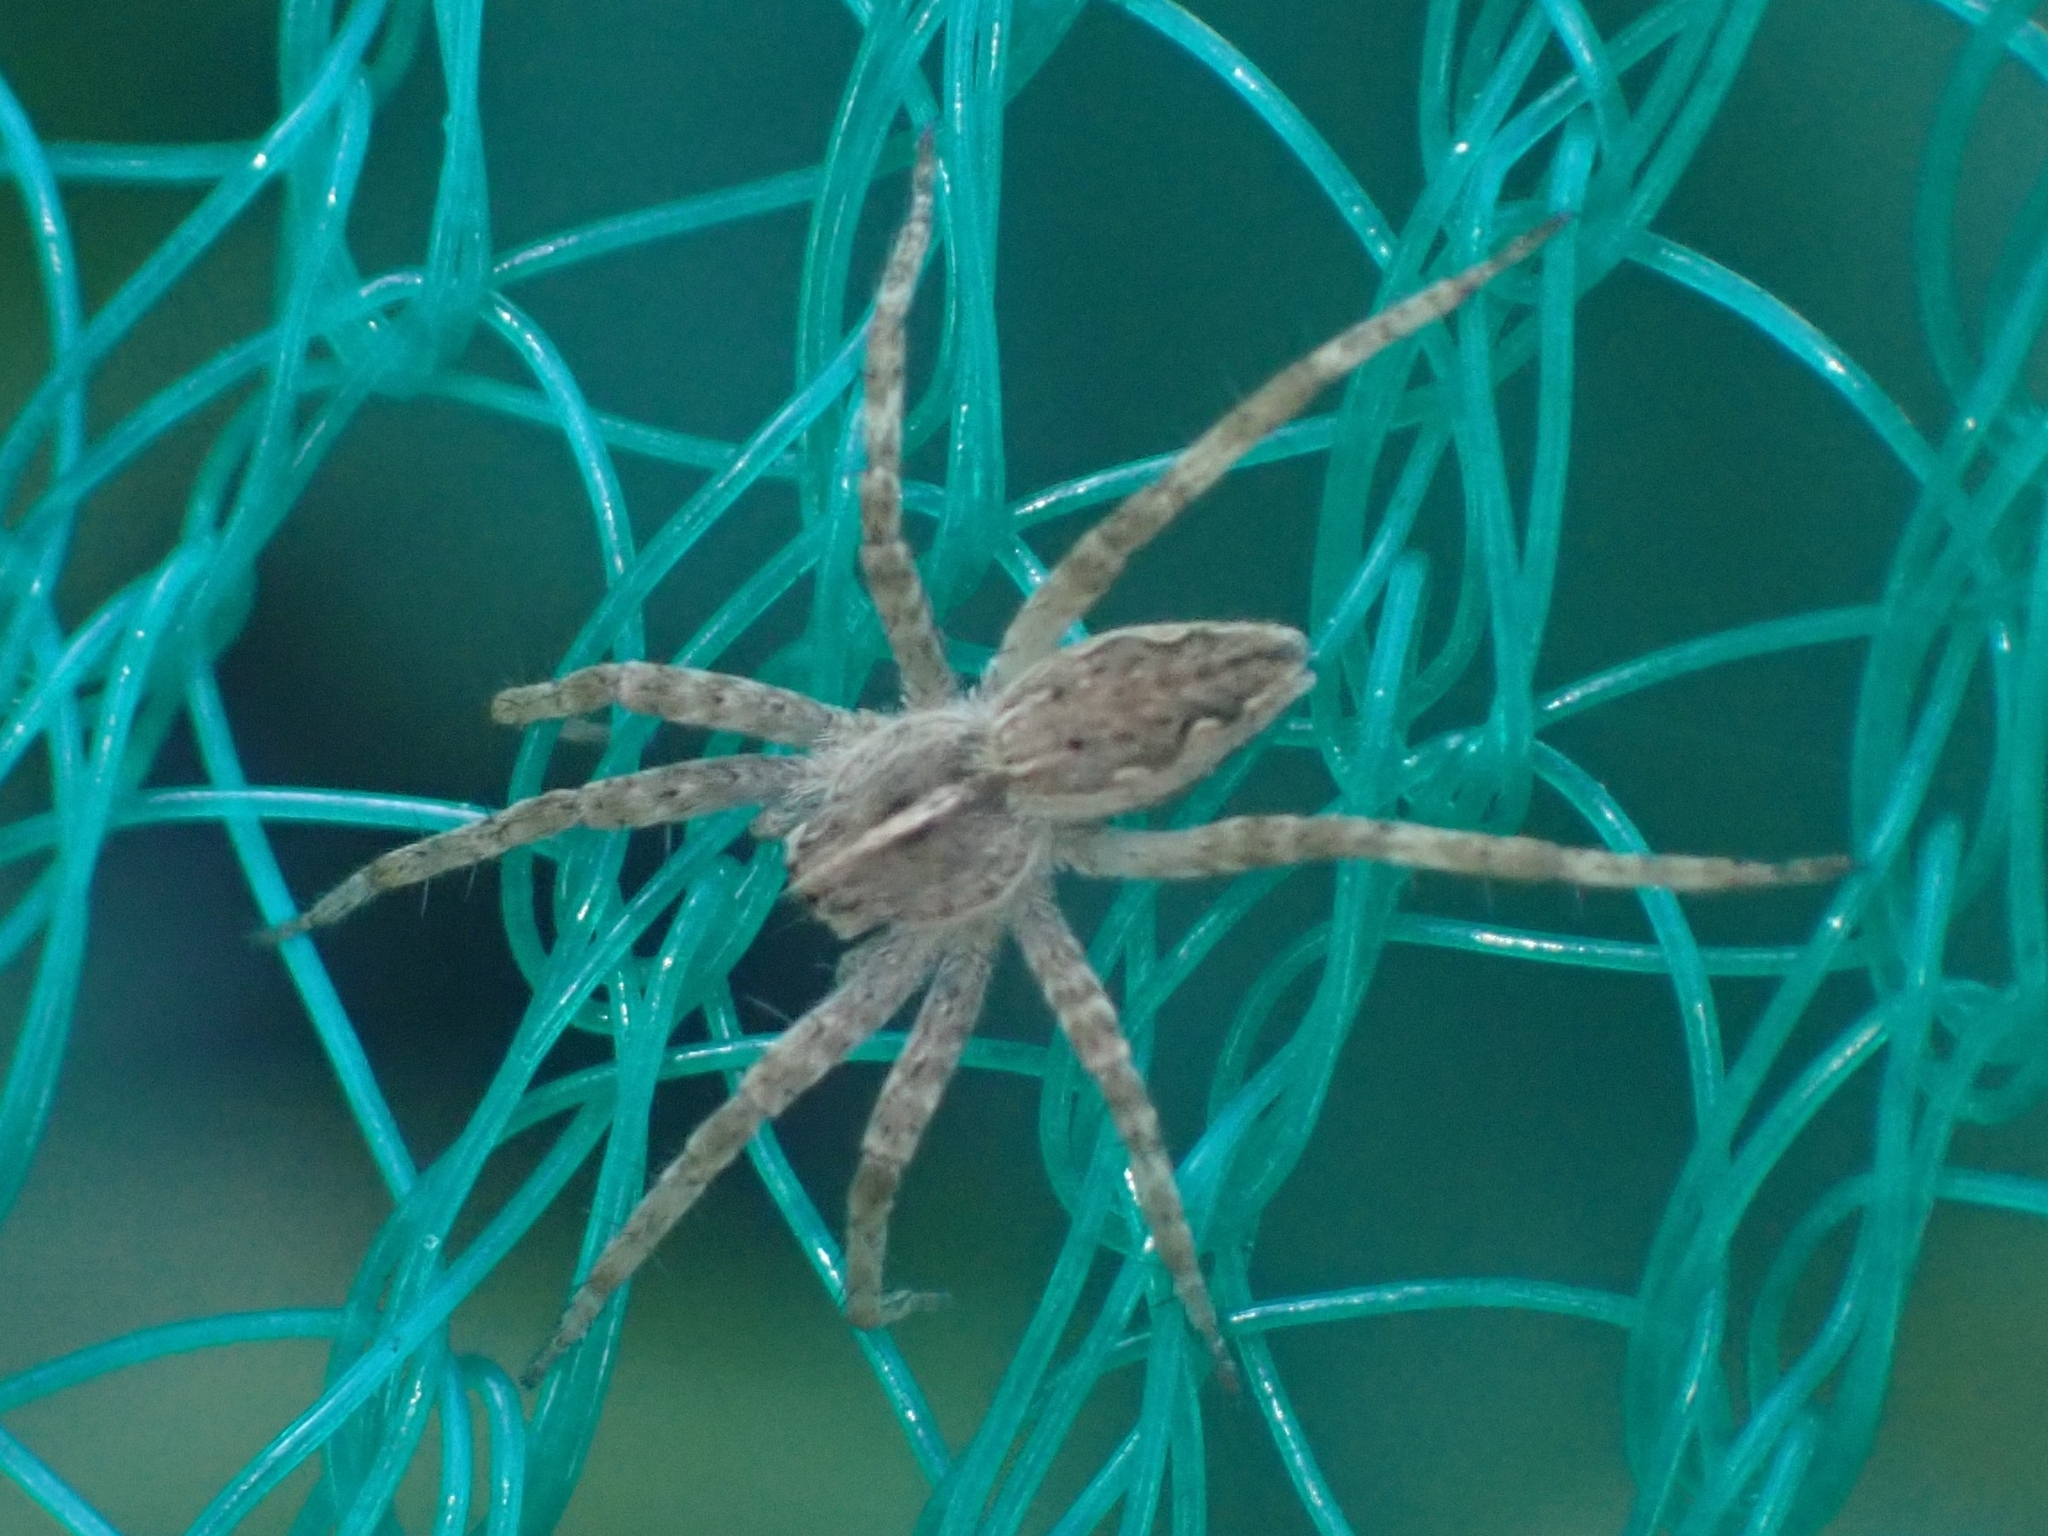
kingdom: Animalia
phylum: Arthropoda
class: Arachnida
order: Araneae
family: Pisauridae
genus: Pisaura
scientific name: Pisaura mirabilis
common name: Tent spider
